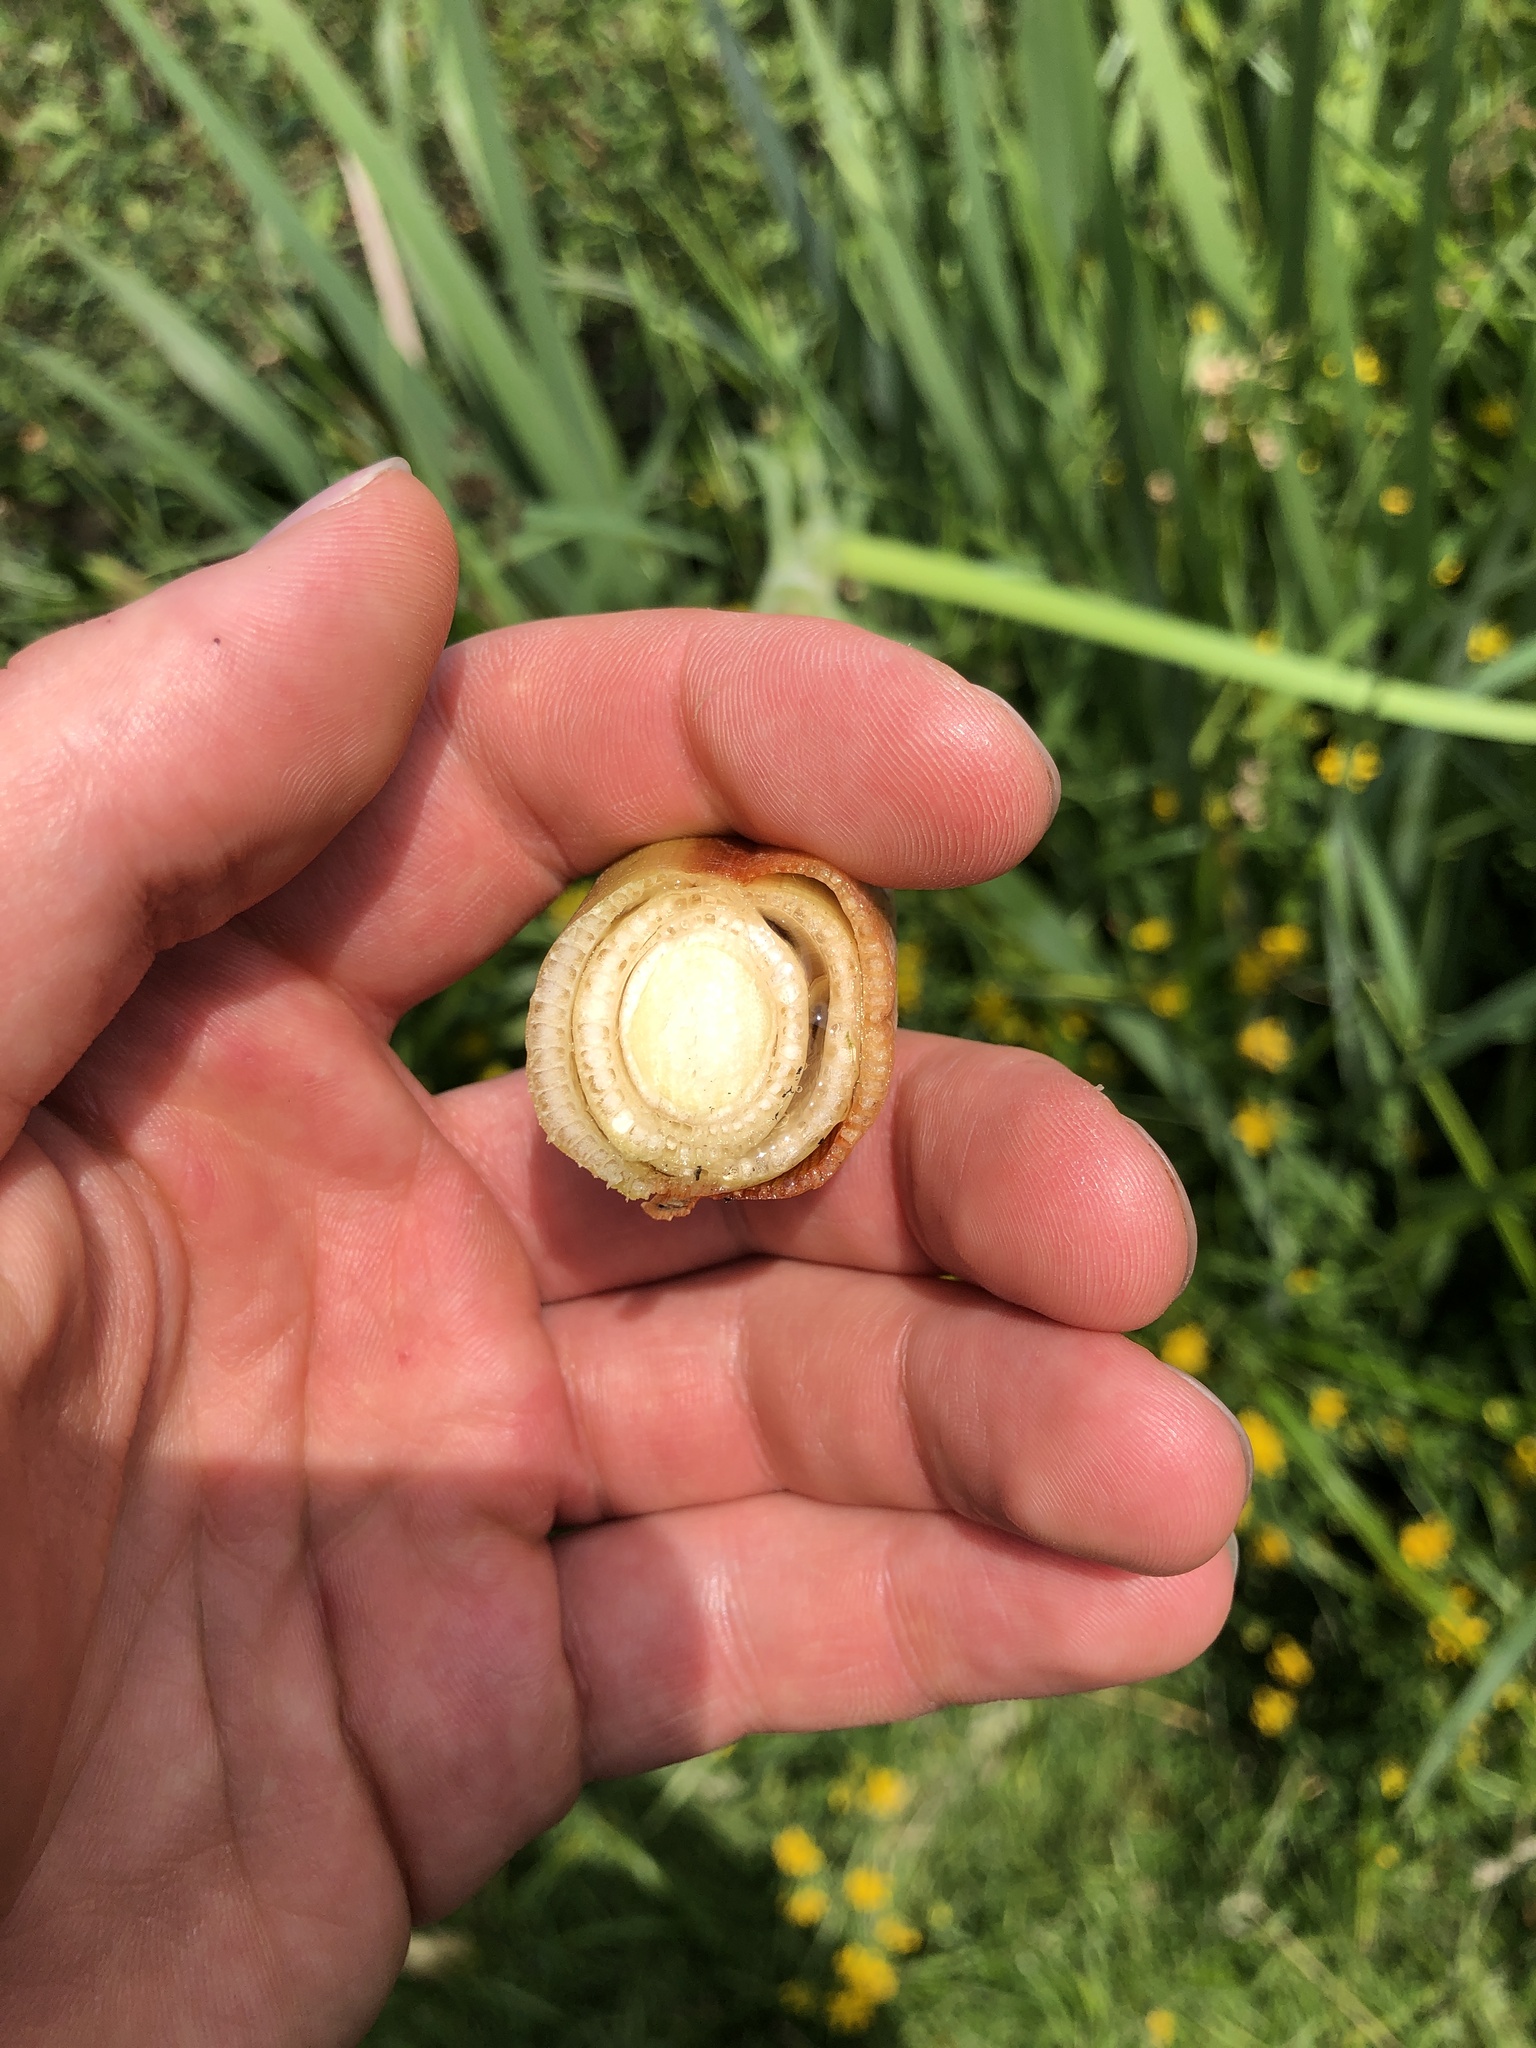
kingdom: Plantae
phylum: Tracheophyta
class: Liliopsida
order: Poales
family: Typhaceae
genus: Typha
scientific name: Typha latifolia
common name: Broadleaf cattail
